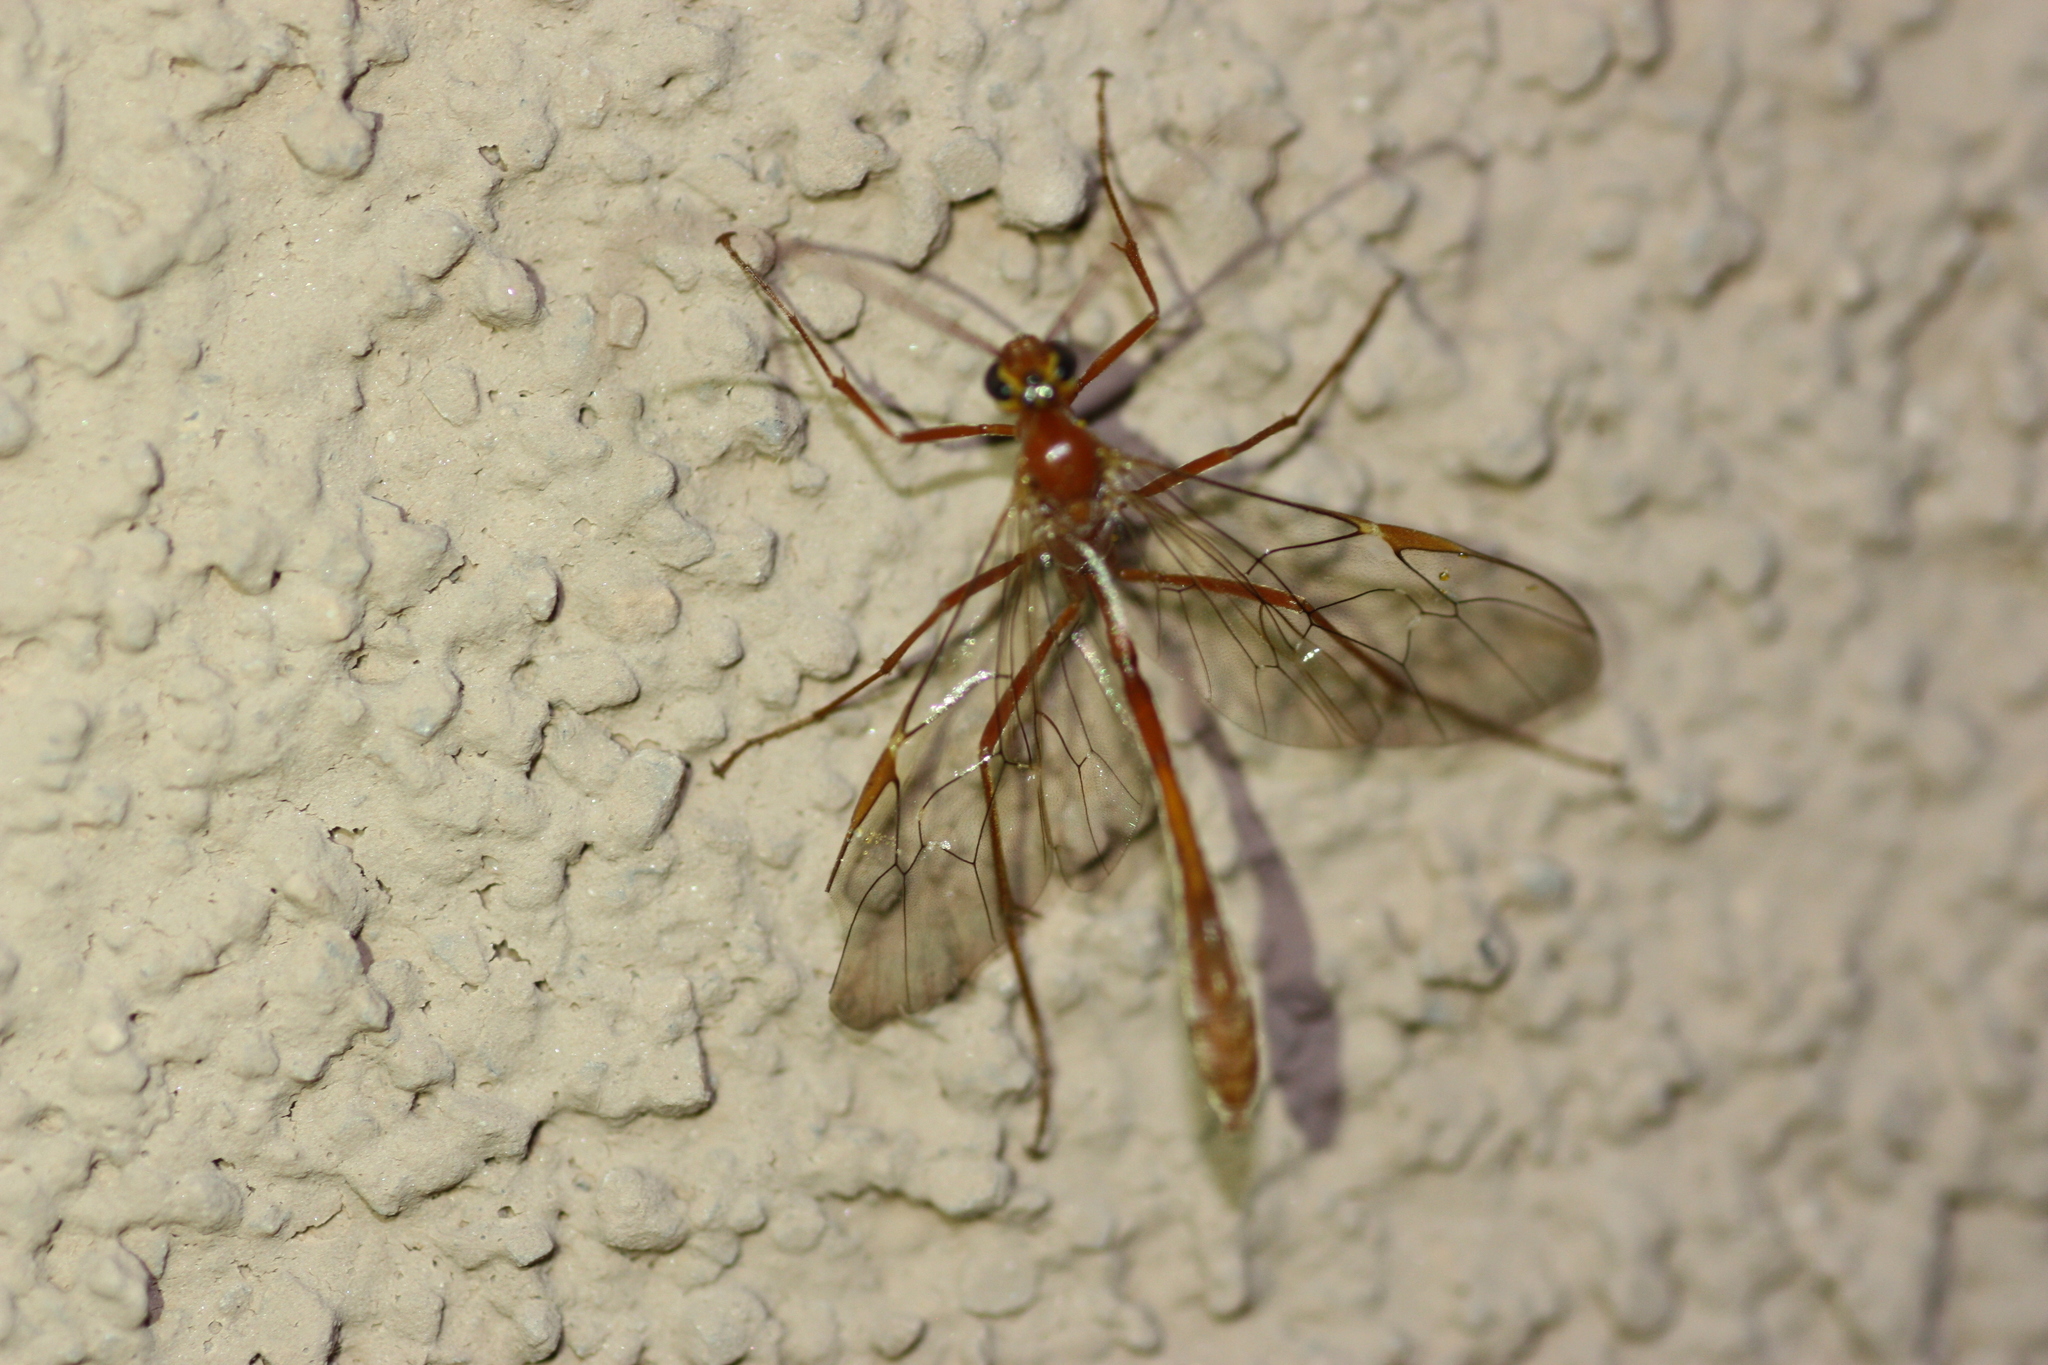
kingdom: Animalia
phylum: Arthropoda
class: Insecta
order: Hymenoptera
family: Ichneumonidae
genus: Eremotylus
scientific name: Eremotylus
